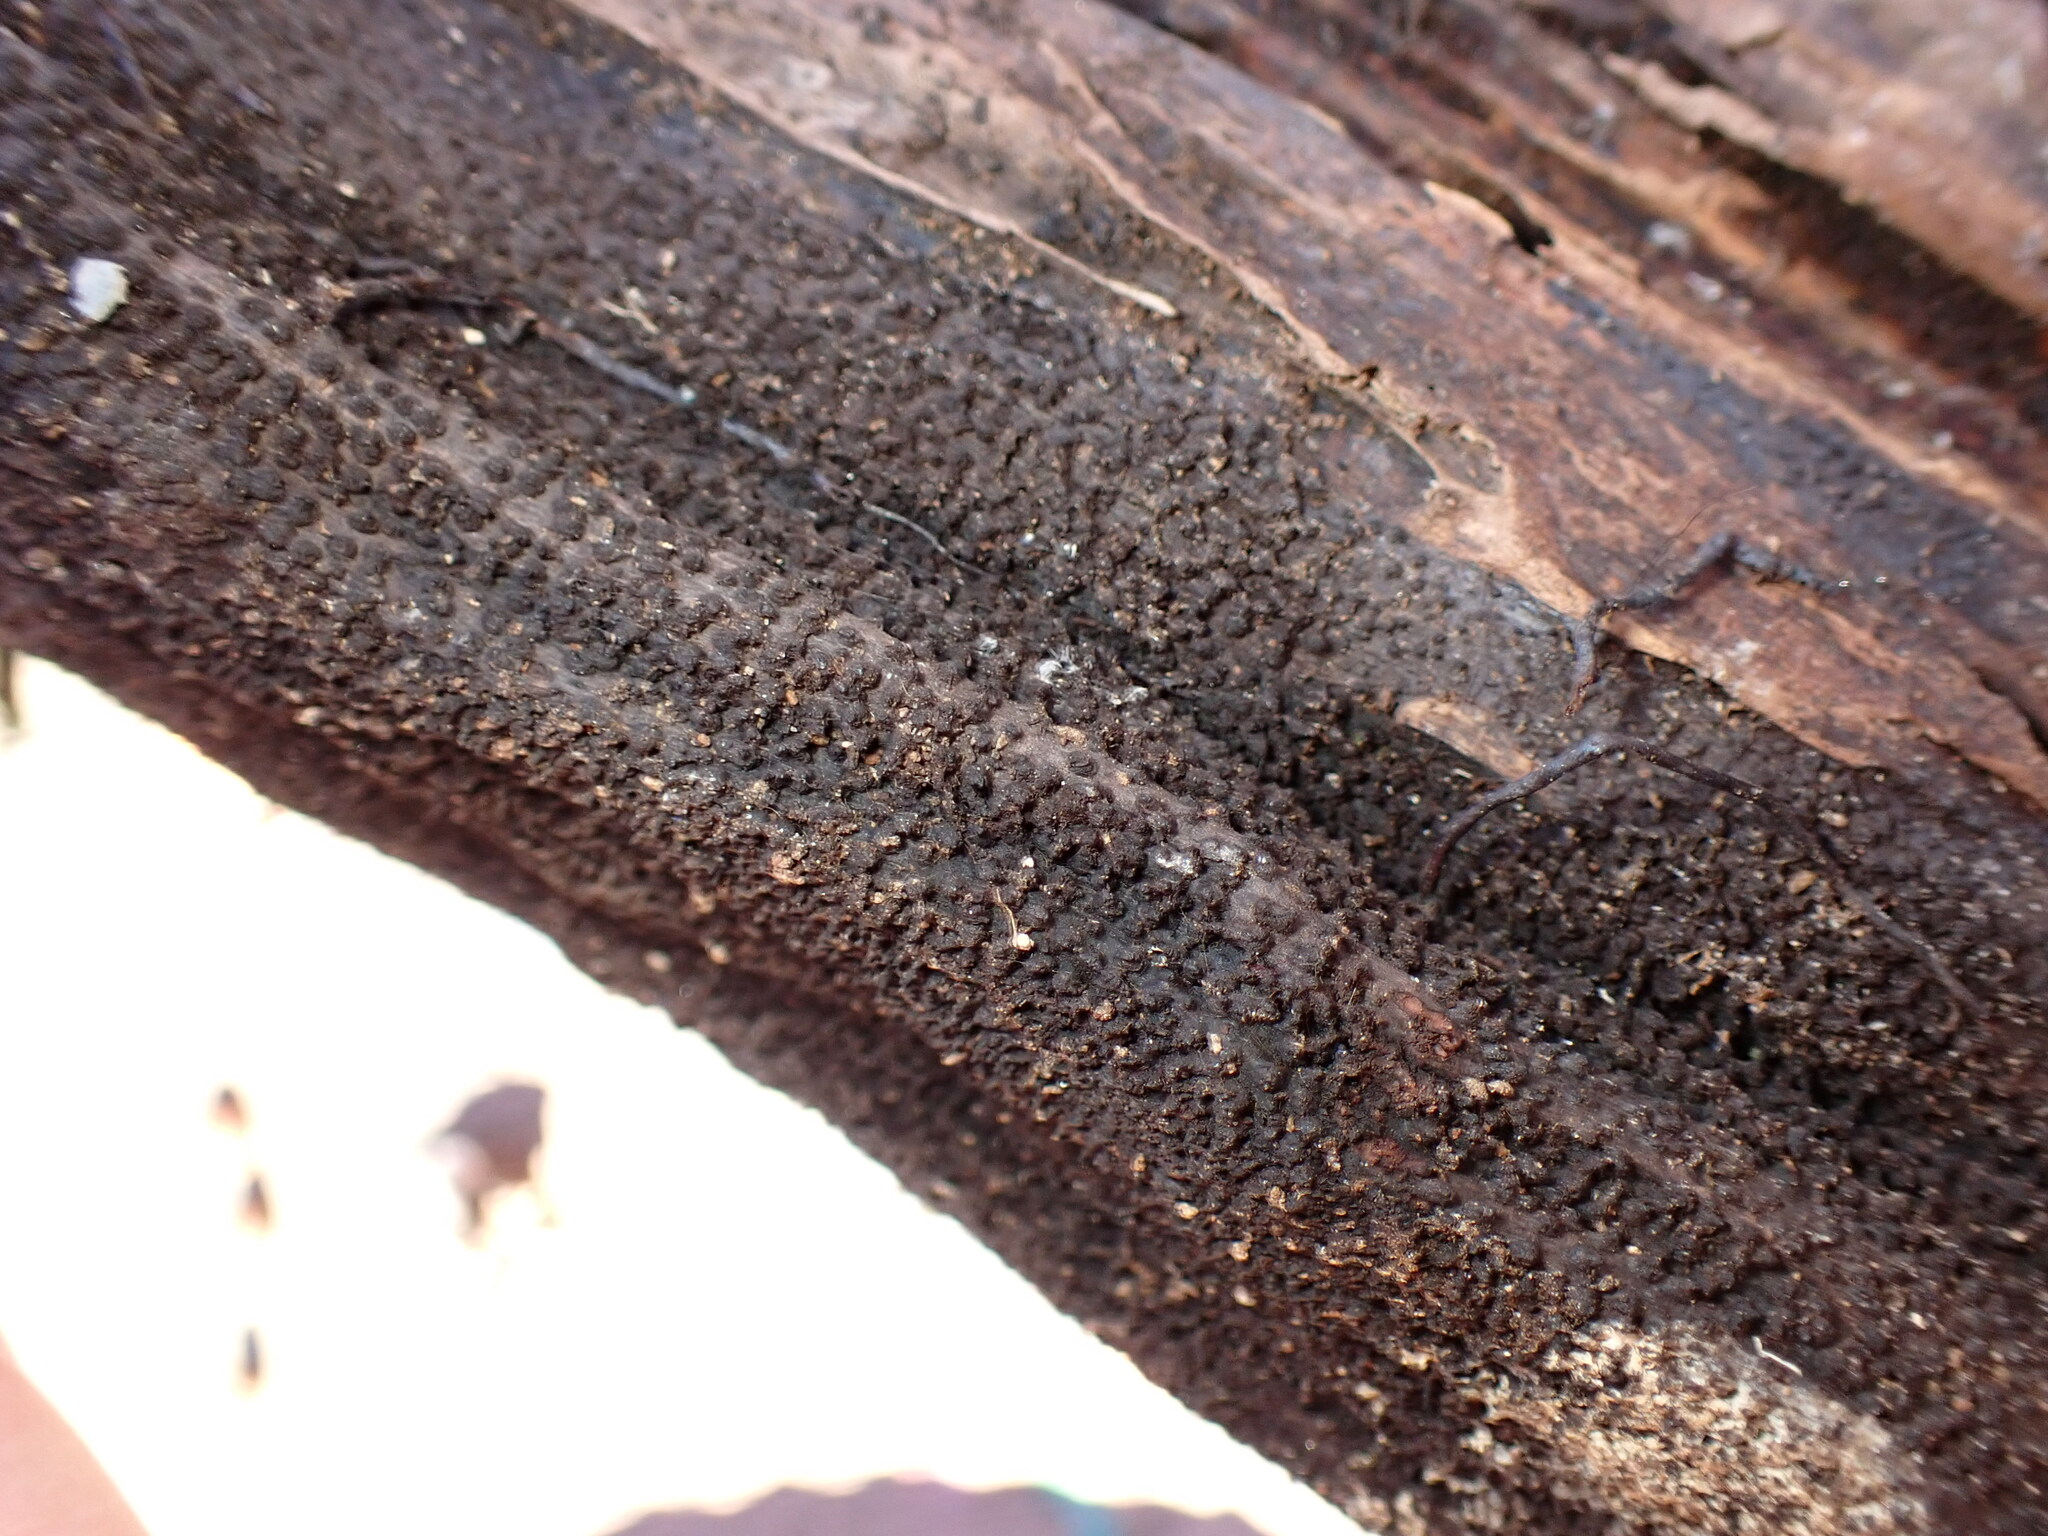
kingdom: Fungi
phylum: Ascomycota
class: Sordariomycetes
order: Xylariales
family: Diatrypaceae
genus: Eutypa
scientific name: Eutypa spinosa
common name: Spiral tarcrust
